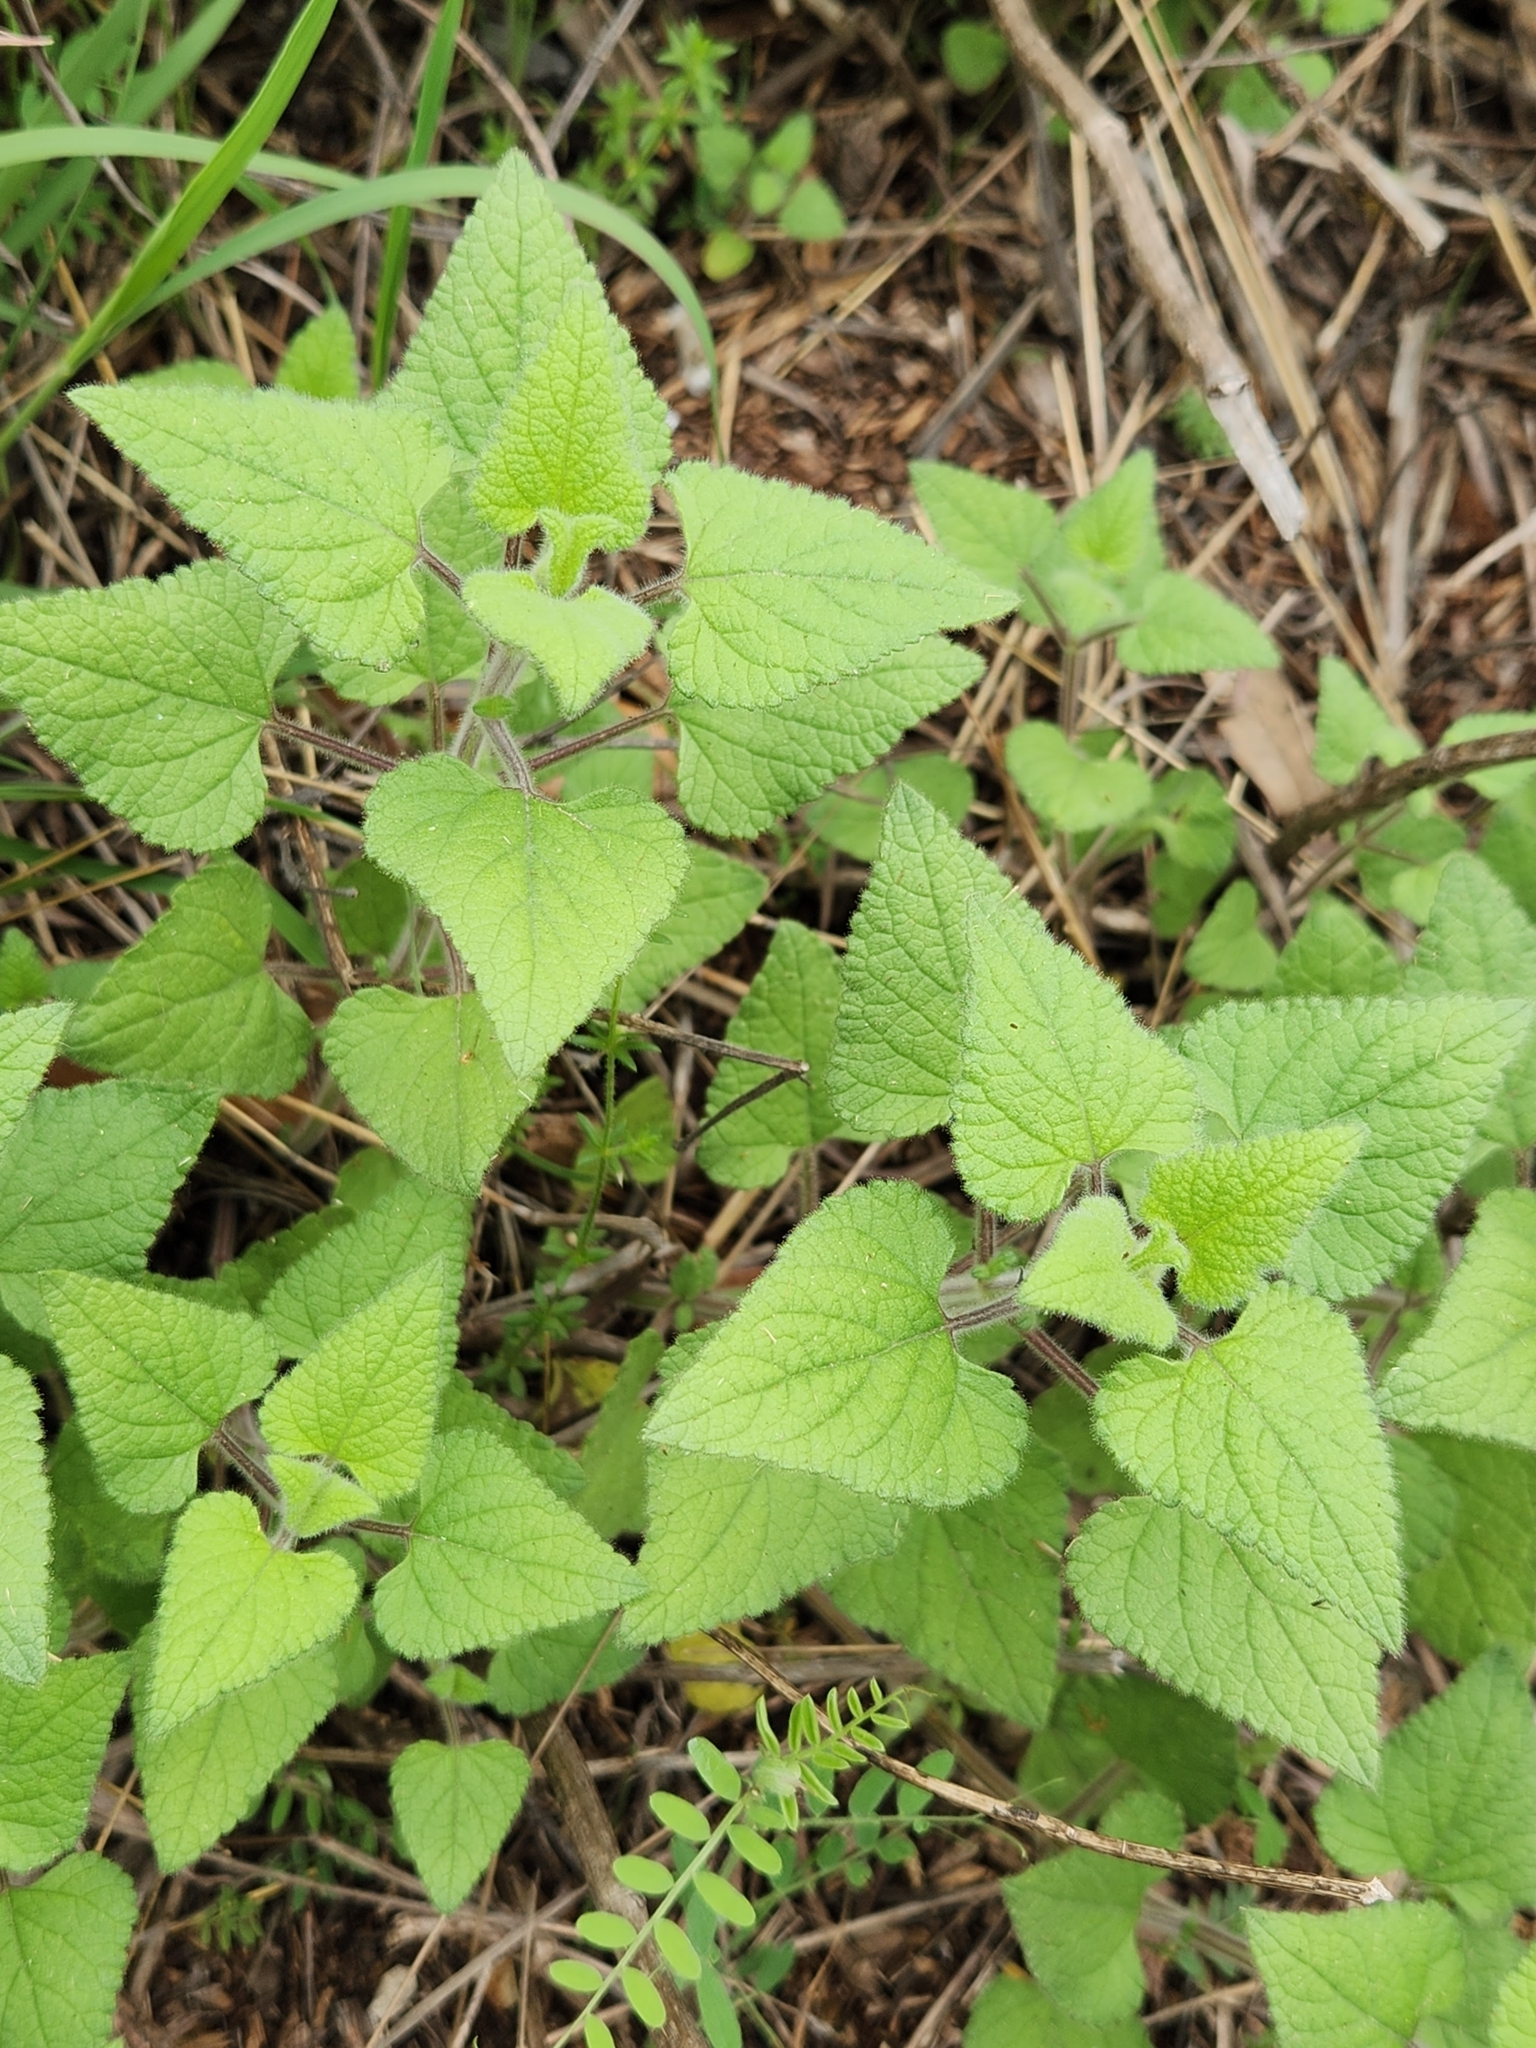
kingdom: Plantae
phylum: Tracheophyta
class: Magnoliopsida
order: Lamiales
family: Lamiaceae
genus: Salvia
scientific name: Salvia coccinea
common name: Blood sage
